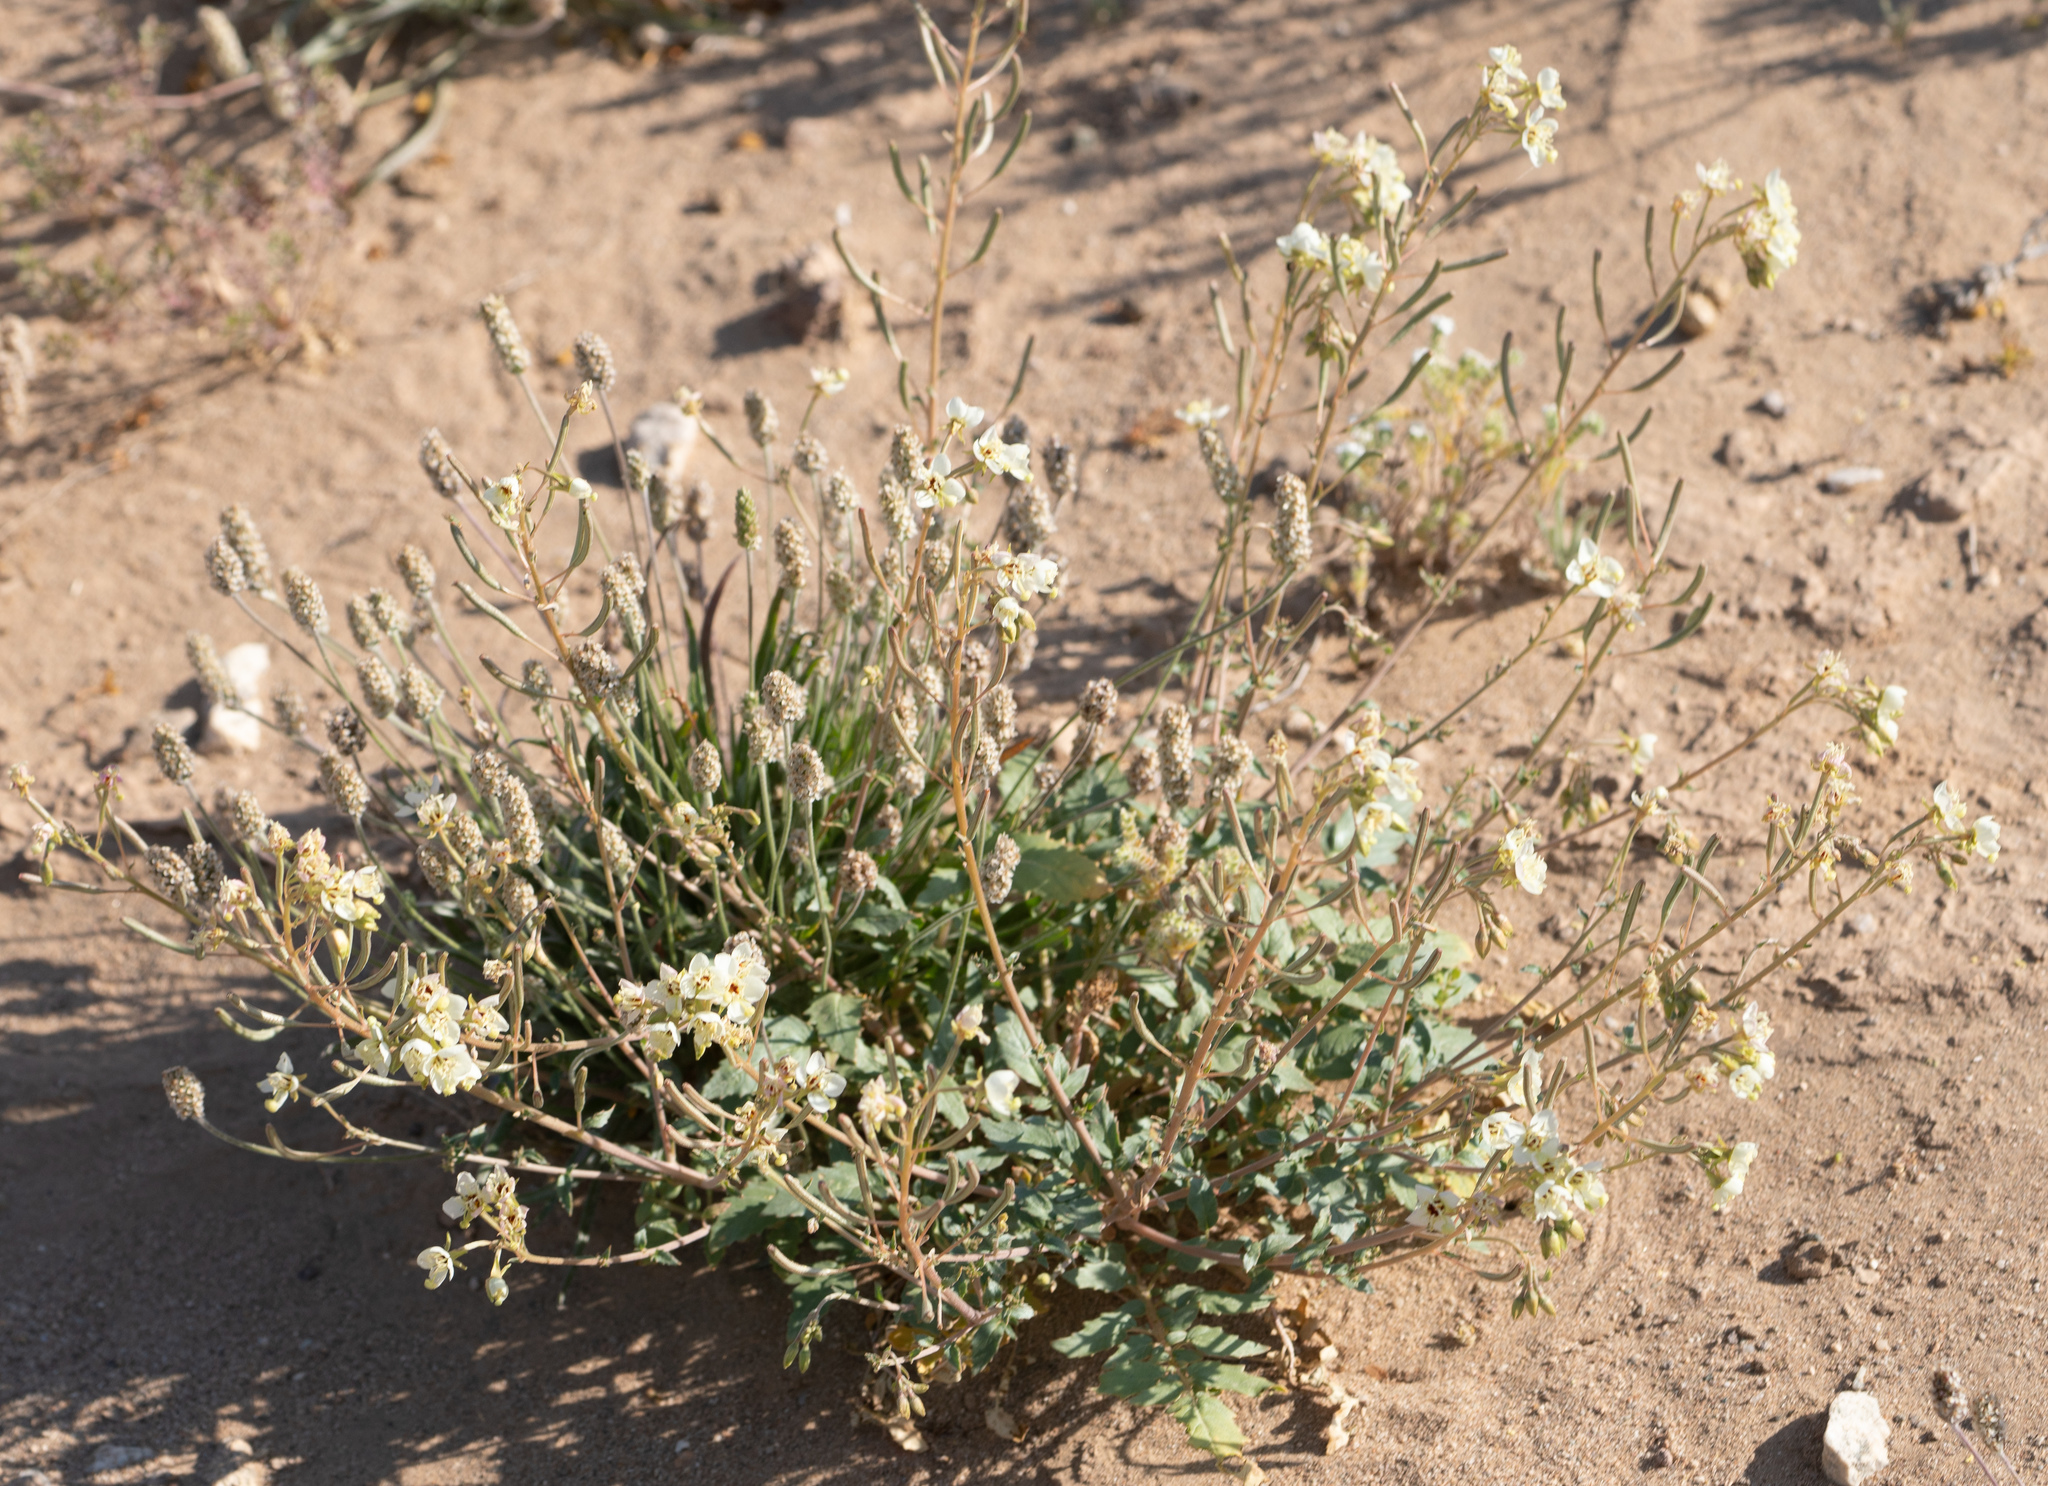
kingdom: Plantae
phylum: Tracheophyta
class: Magnoliopsida
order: Myrtales
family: Onagraceae
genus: Chylismia
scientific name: Chylismia claviformis
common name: Browneyes
